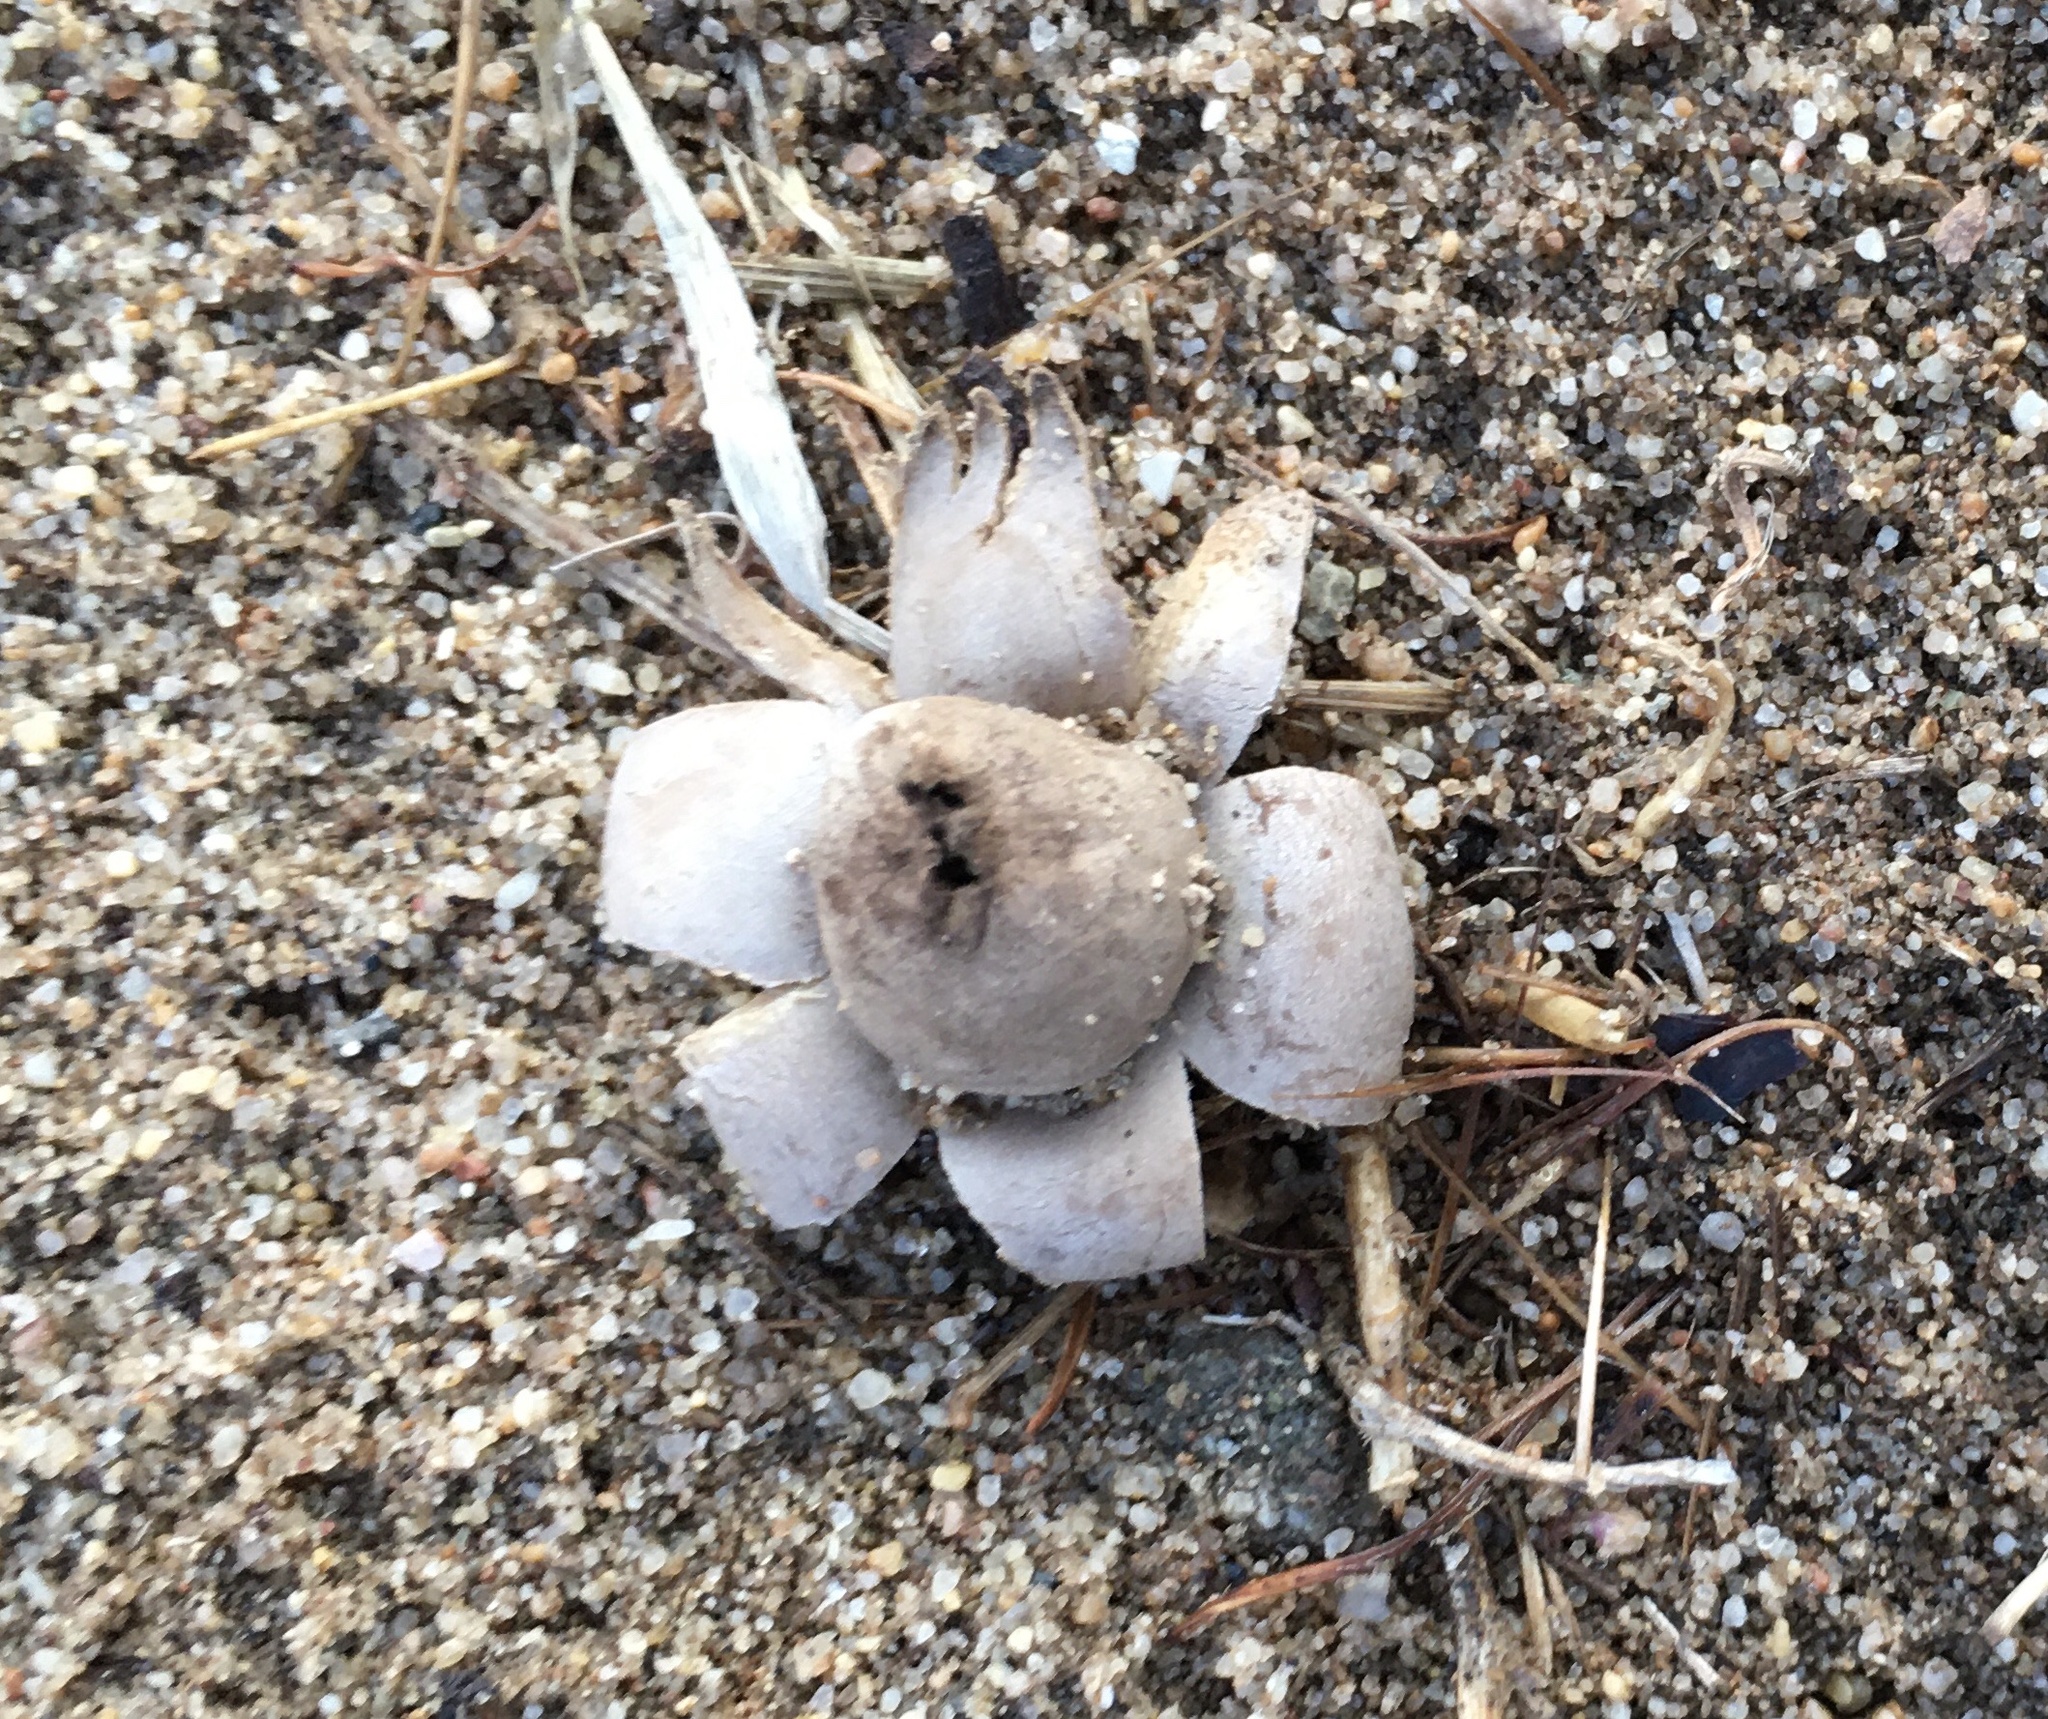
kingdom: Fungi
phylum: Basidiomycota
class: Agaricomycetes
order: Boletales
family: Diplocystidiaceae
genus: Astraeus
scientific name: Astraeus hygrometricus
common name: Barometer earthstar
